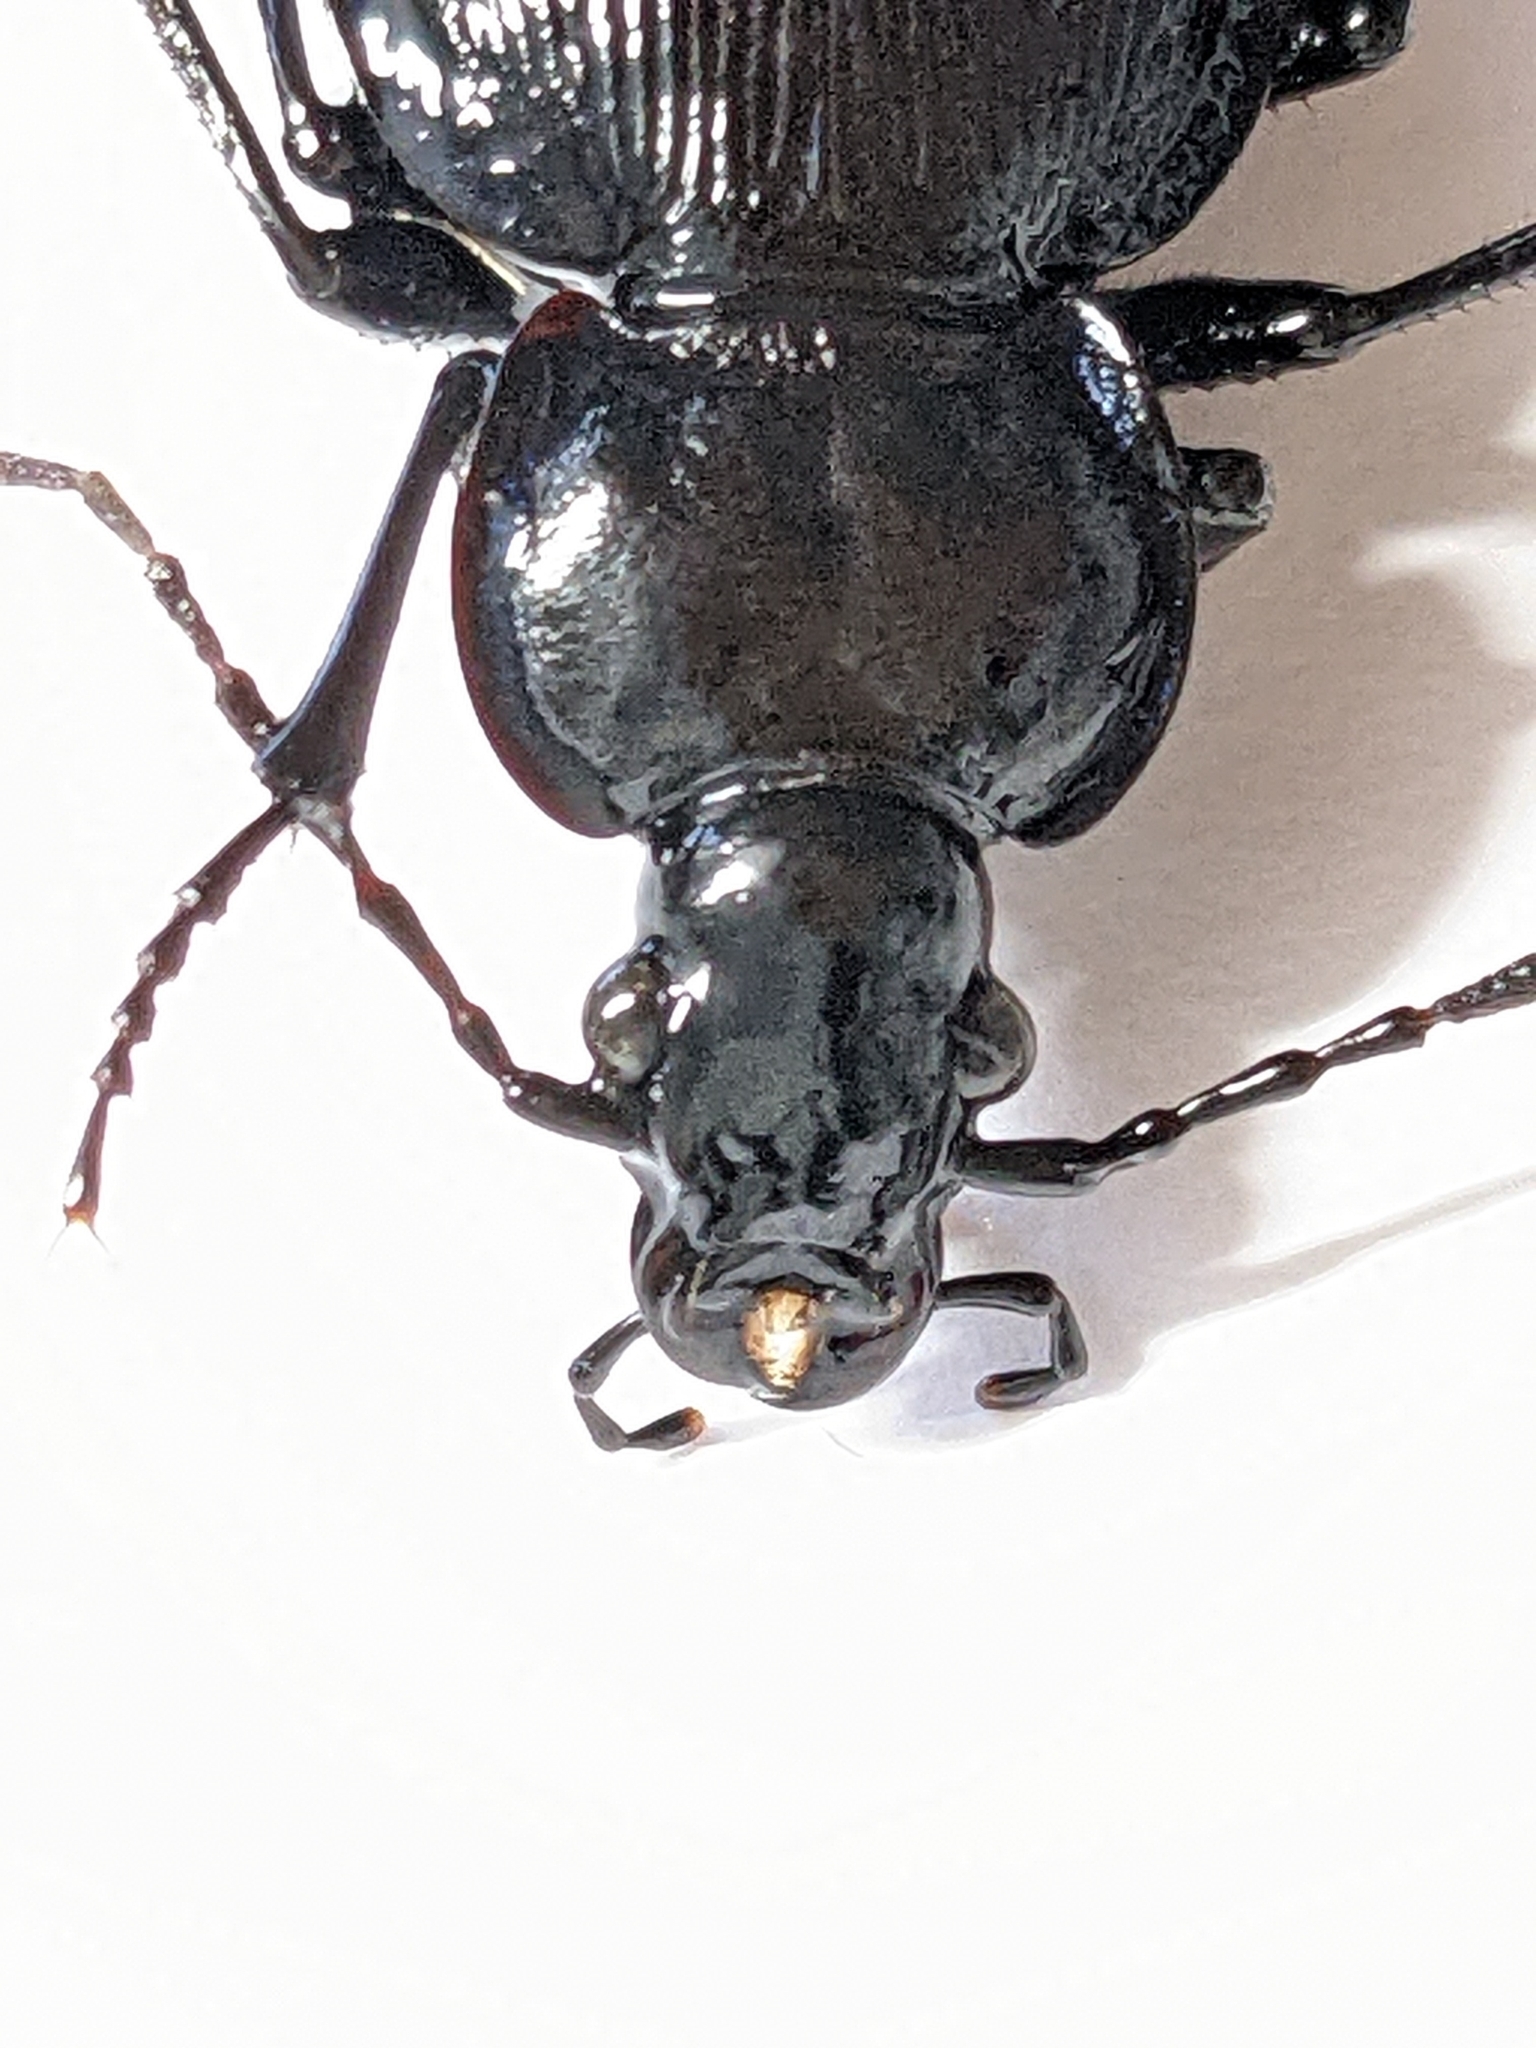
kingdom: Animalia
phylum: Arthropoda
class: Insecta
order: Coleoptera
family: Carabidae
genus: Carabus
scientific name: Carabus goryi
